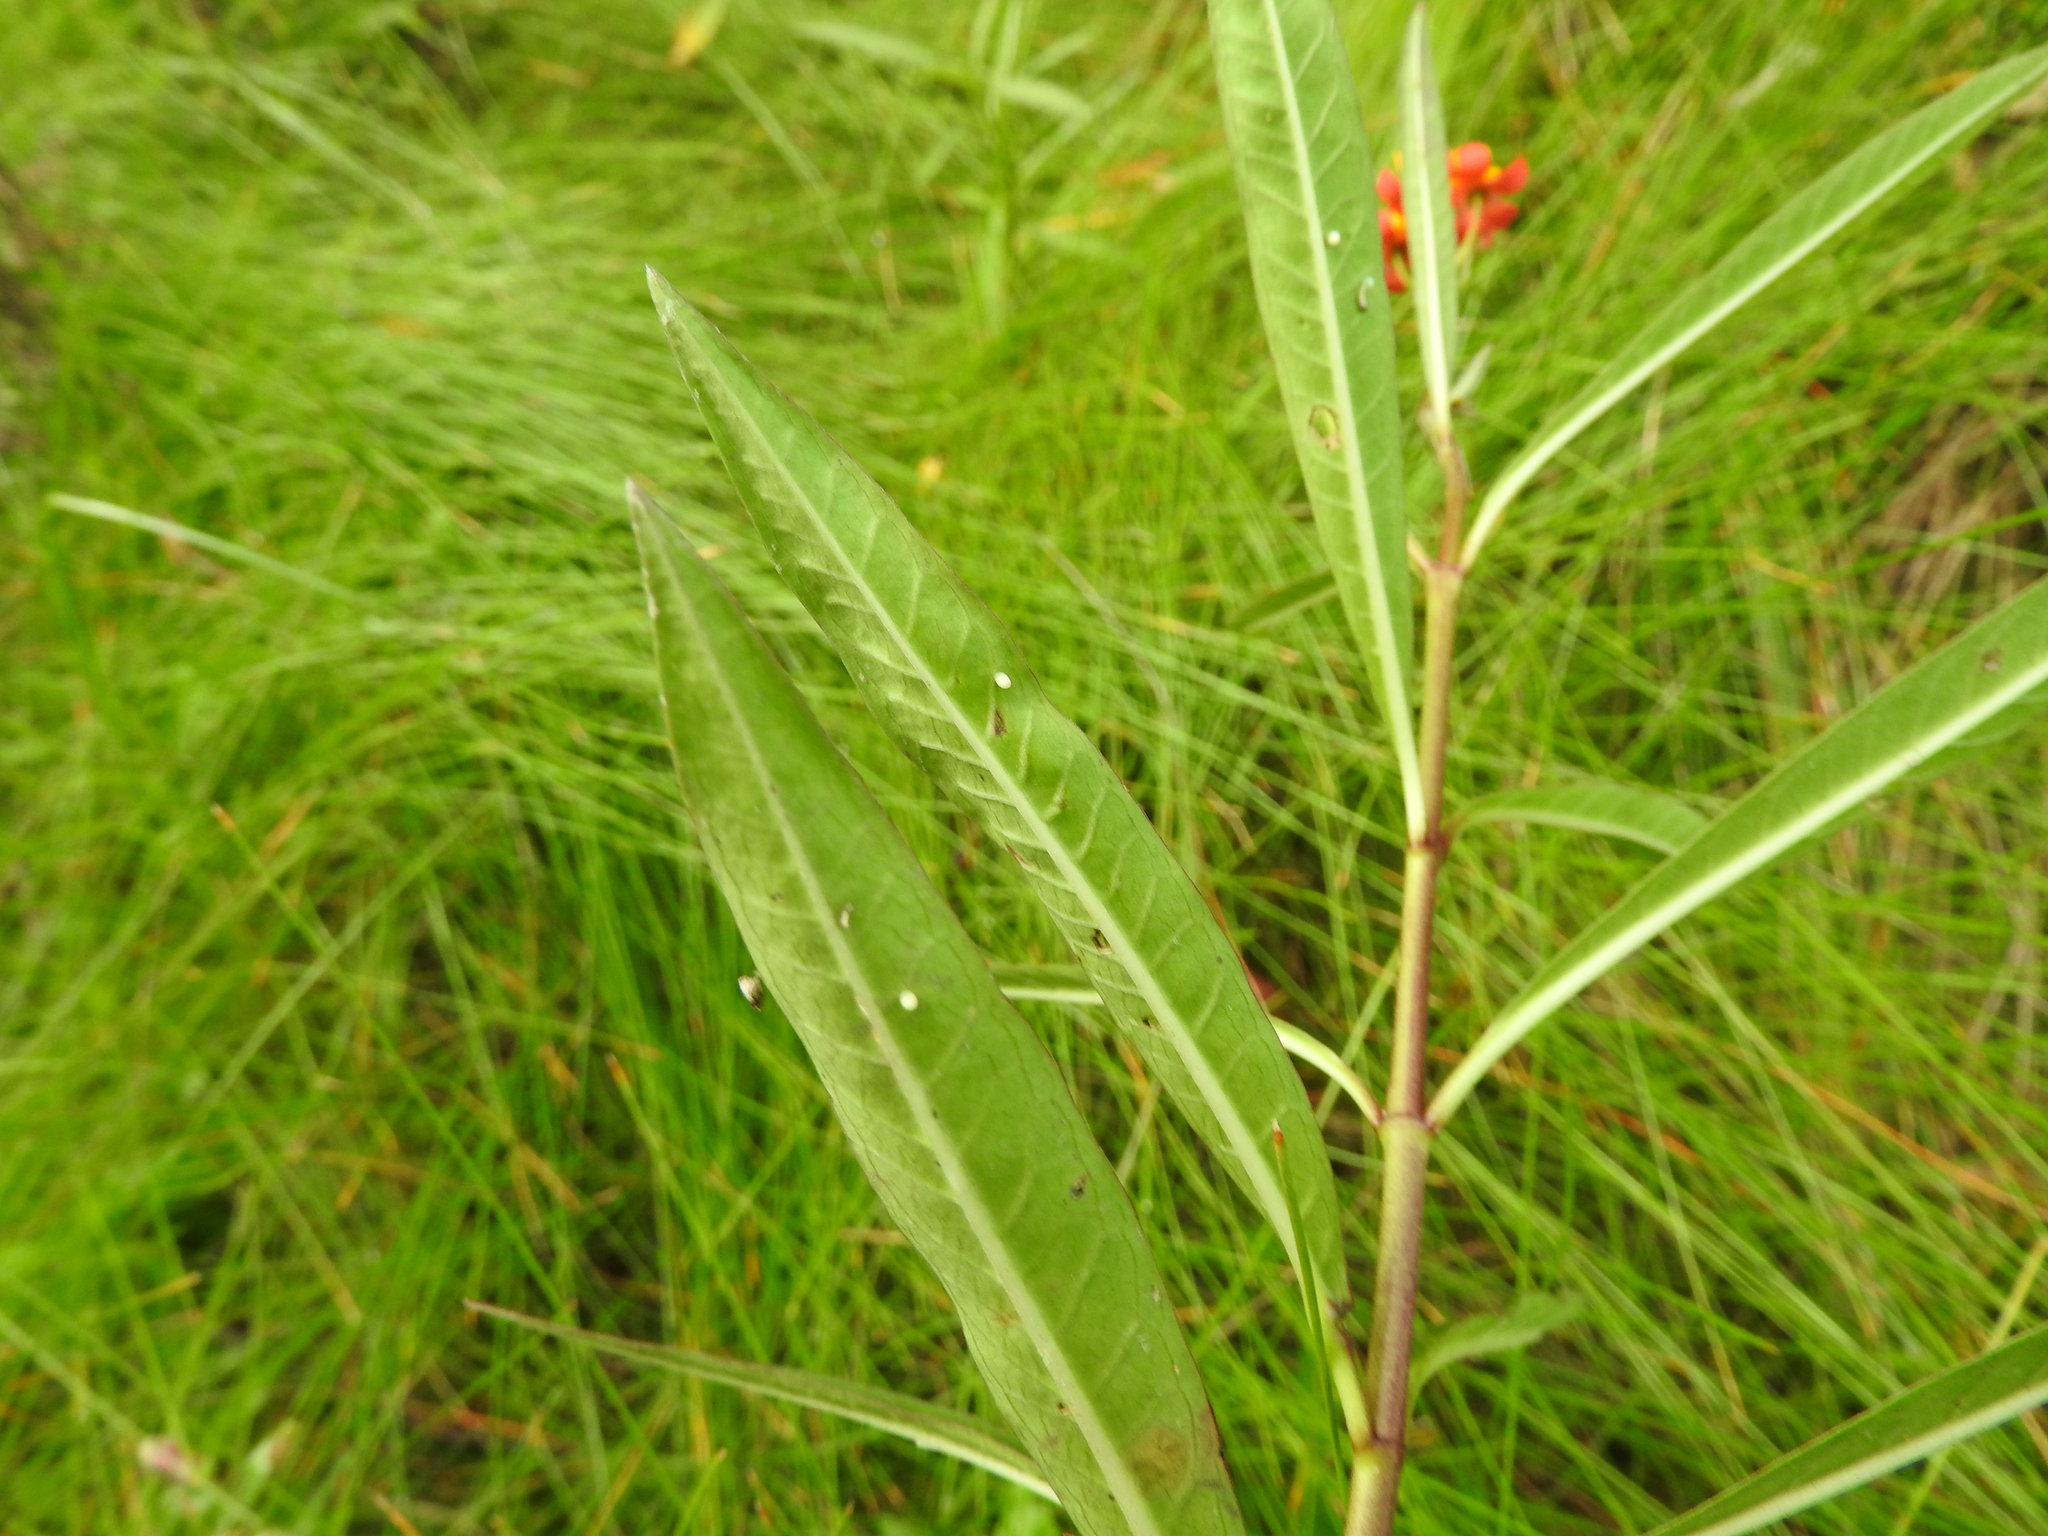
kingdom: Animalia
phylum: Arthropoda
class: Insecta
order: Lepidoptera
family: Nymphalidae
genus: Danaus
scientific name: Danaus plexippus
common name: Monarch
